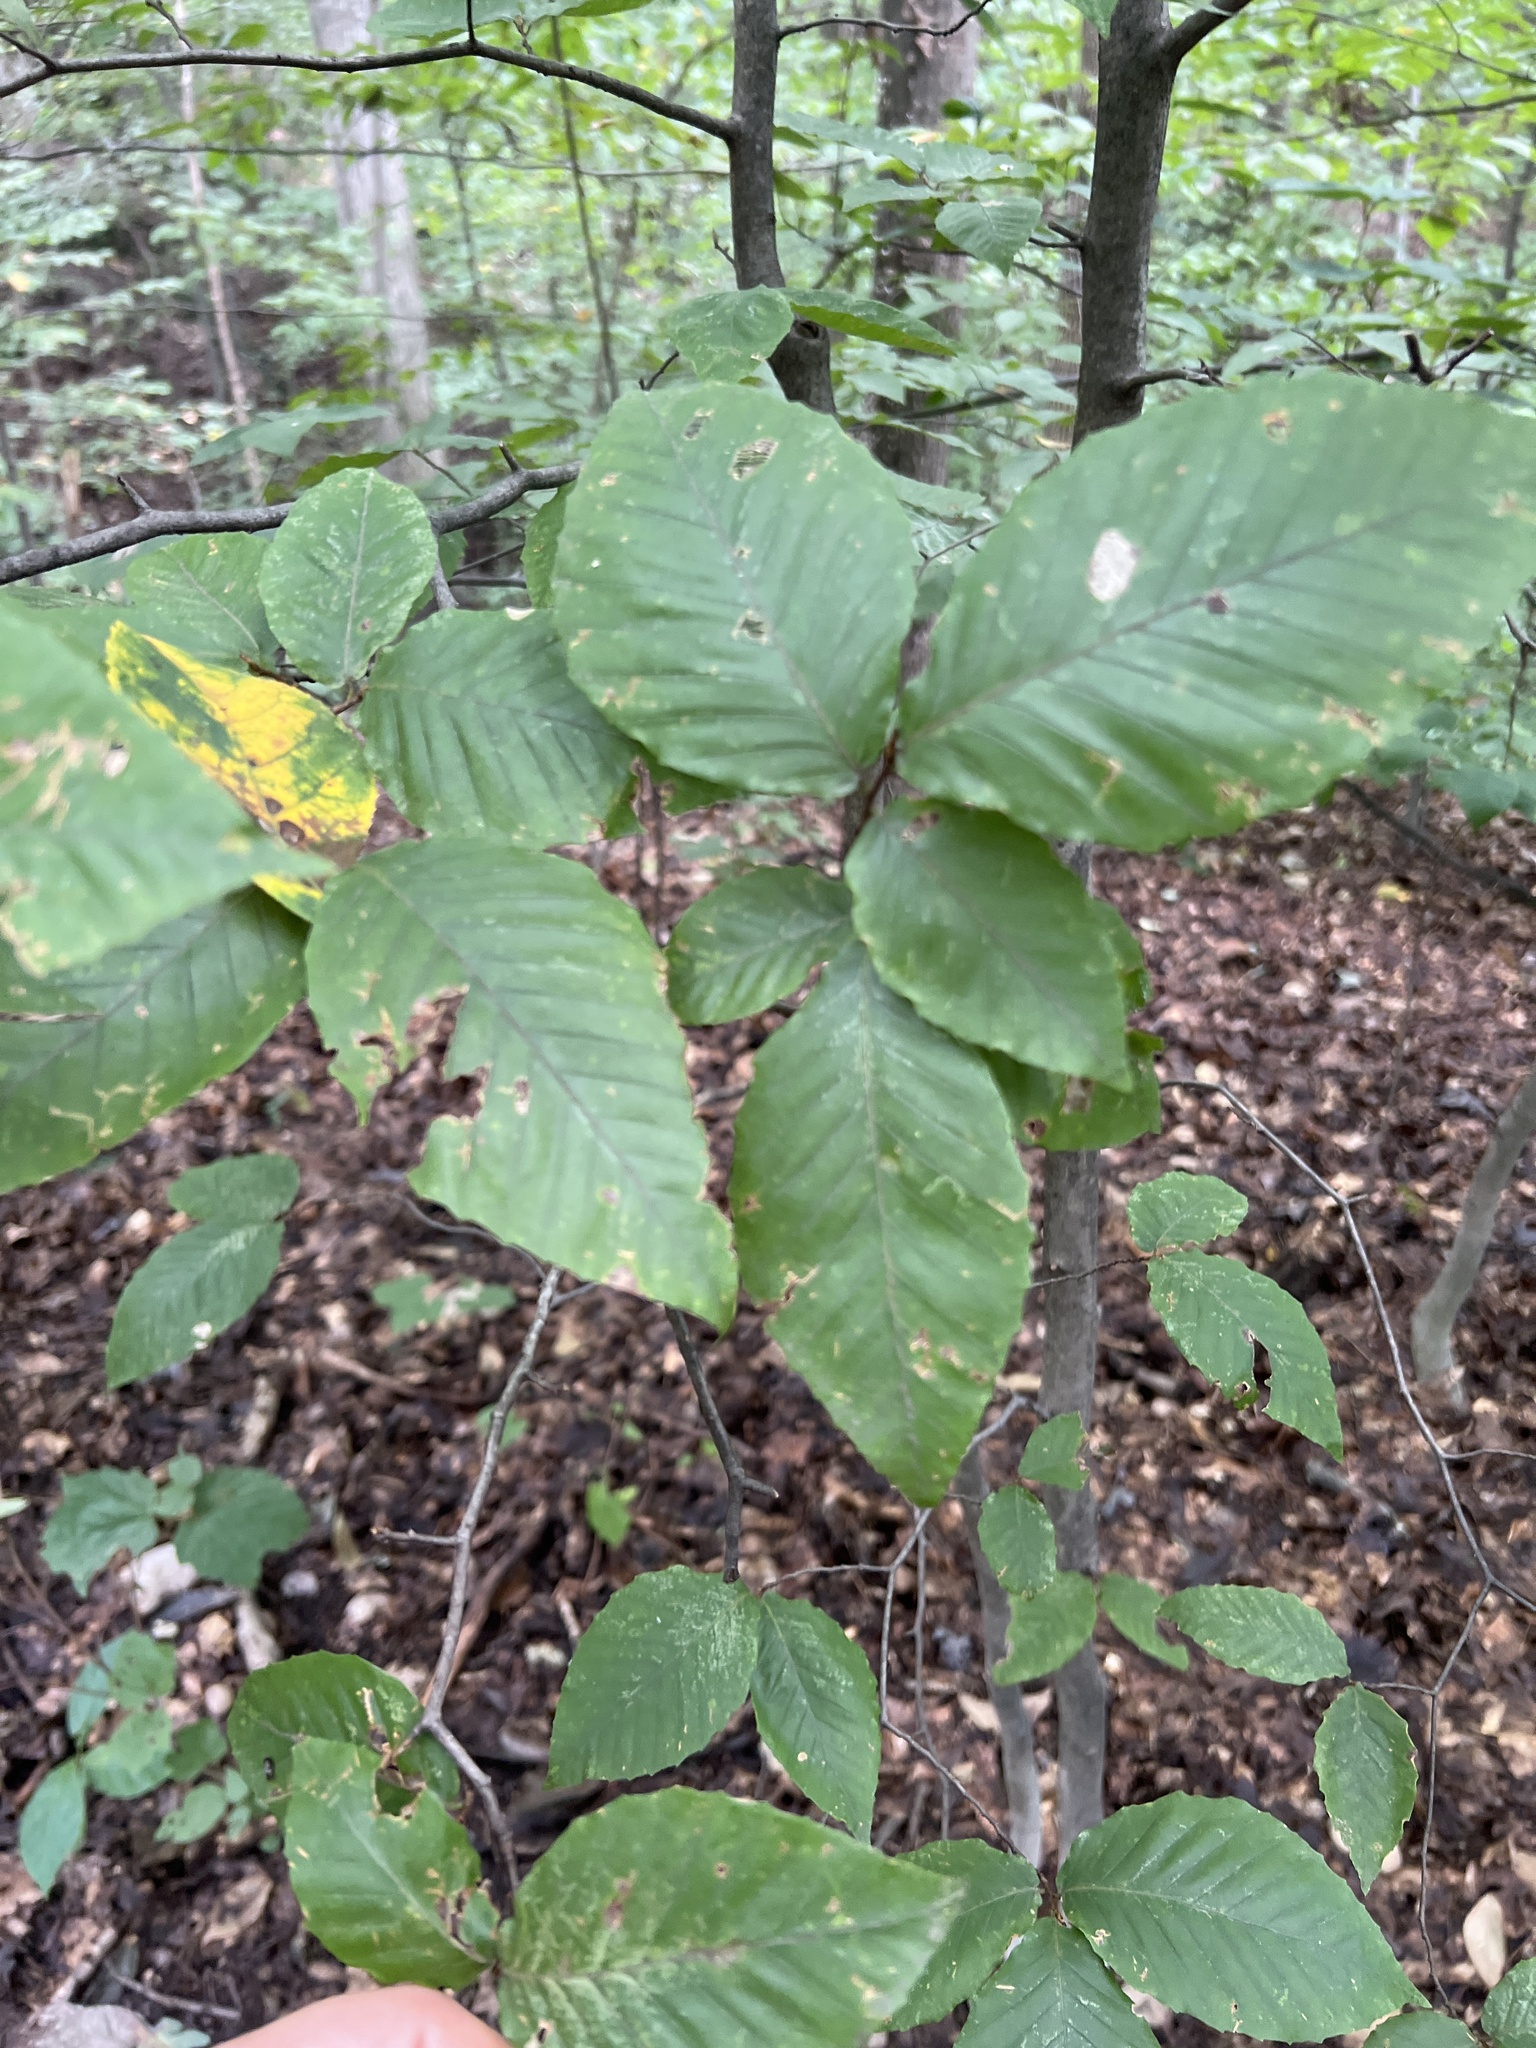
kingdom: Plantae
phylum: Tracheophyta
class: Magnoliopsida
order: Fagales
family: Fagaceae
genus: Fagus
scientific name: Fagus grandifolia
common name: American beech
